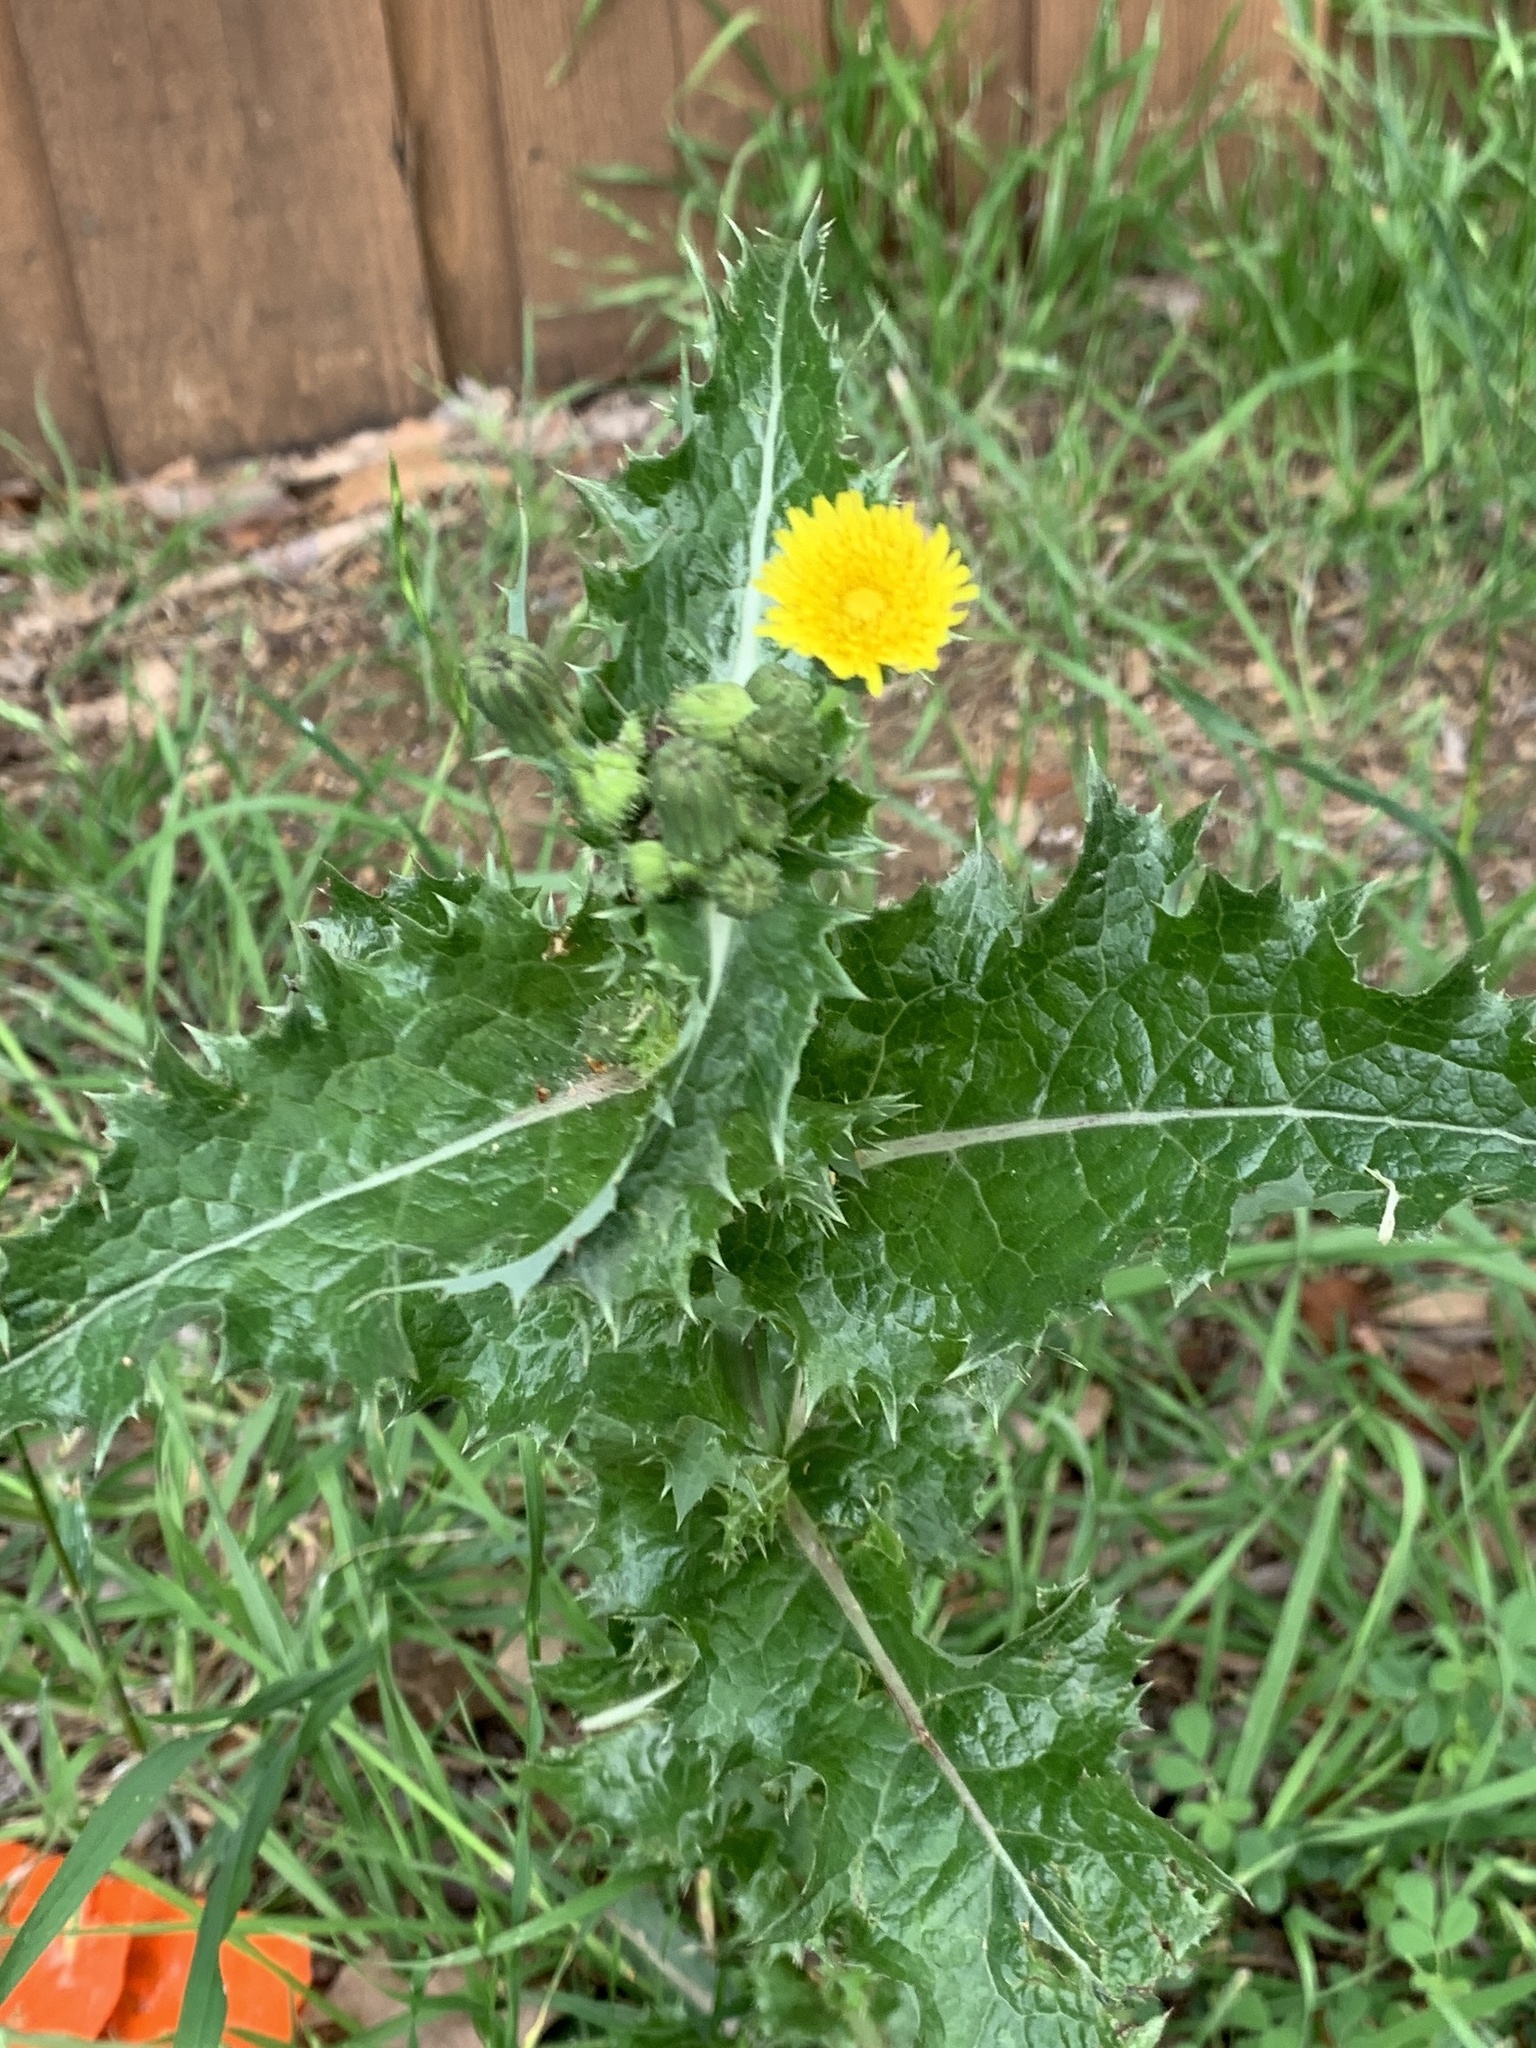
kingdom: Plantae
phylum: Tracheophyta
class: Magnoliopsida
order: Asterales
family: Asteraceae
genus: Sonchus
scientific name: Sonchus asper
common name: Prickly sow-thistle
